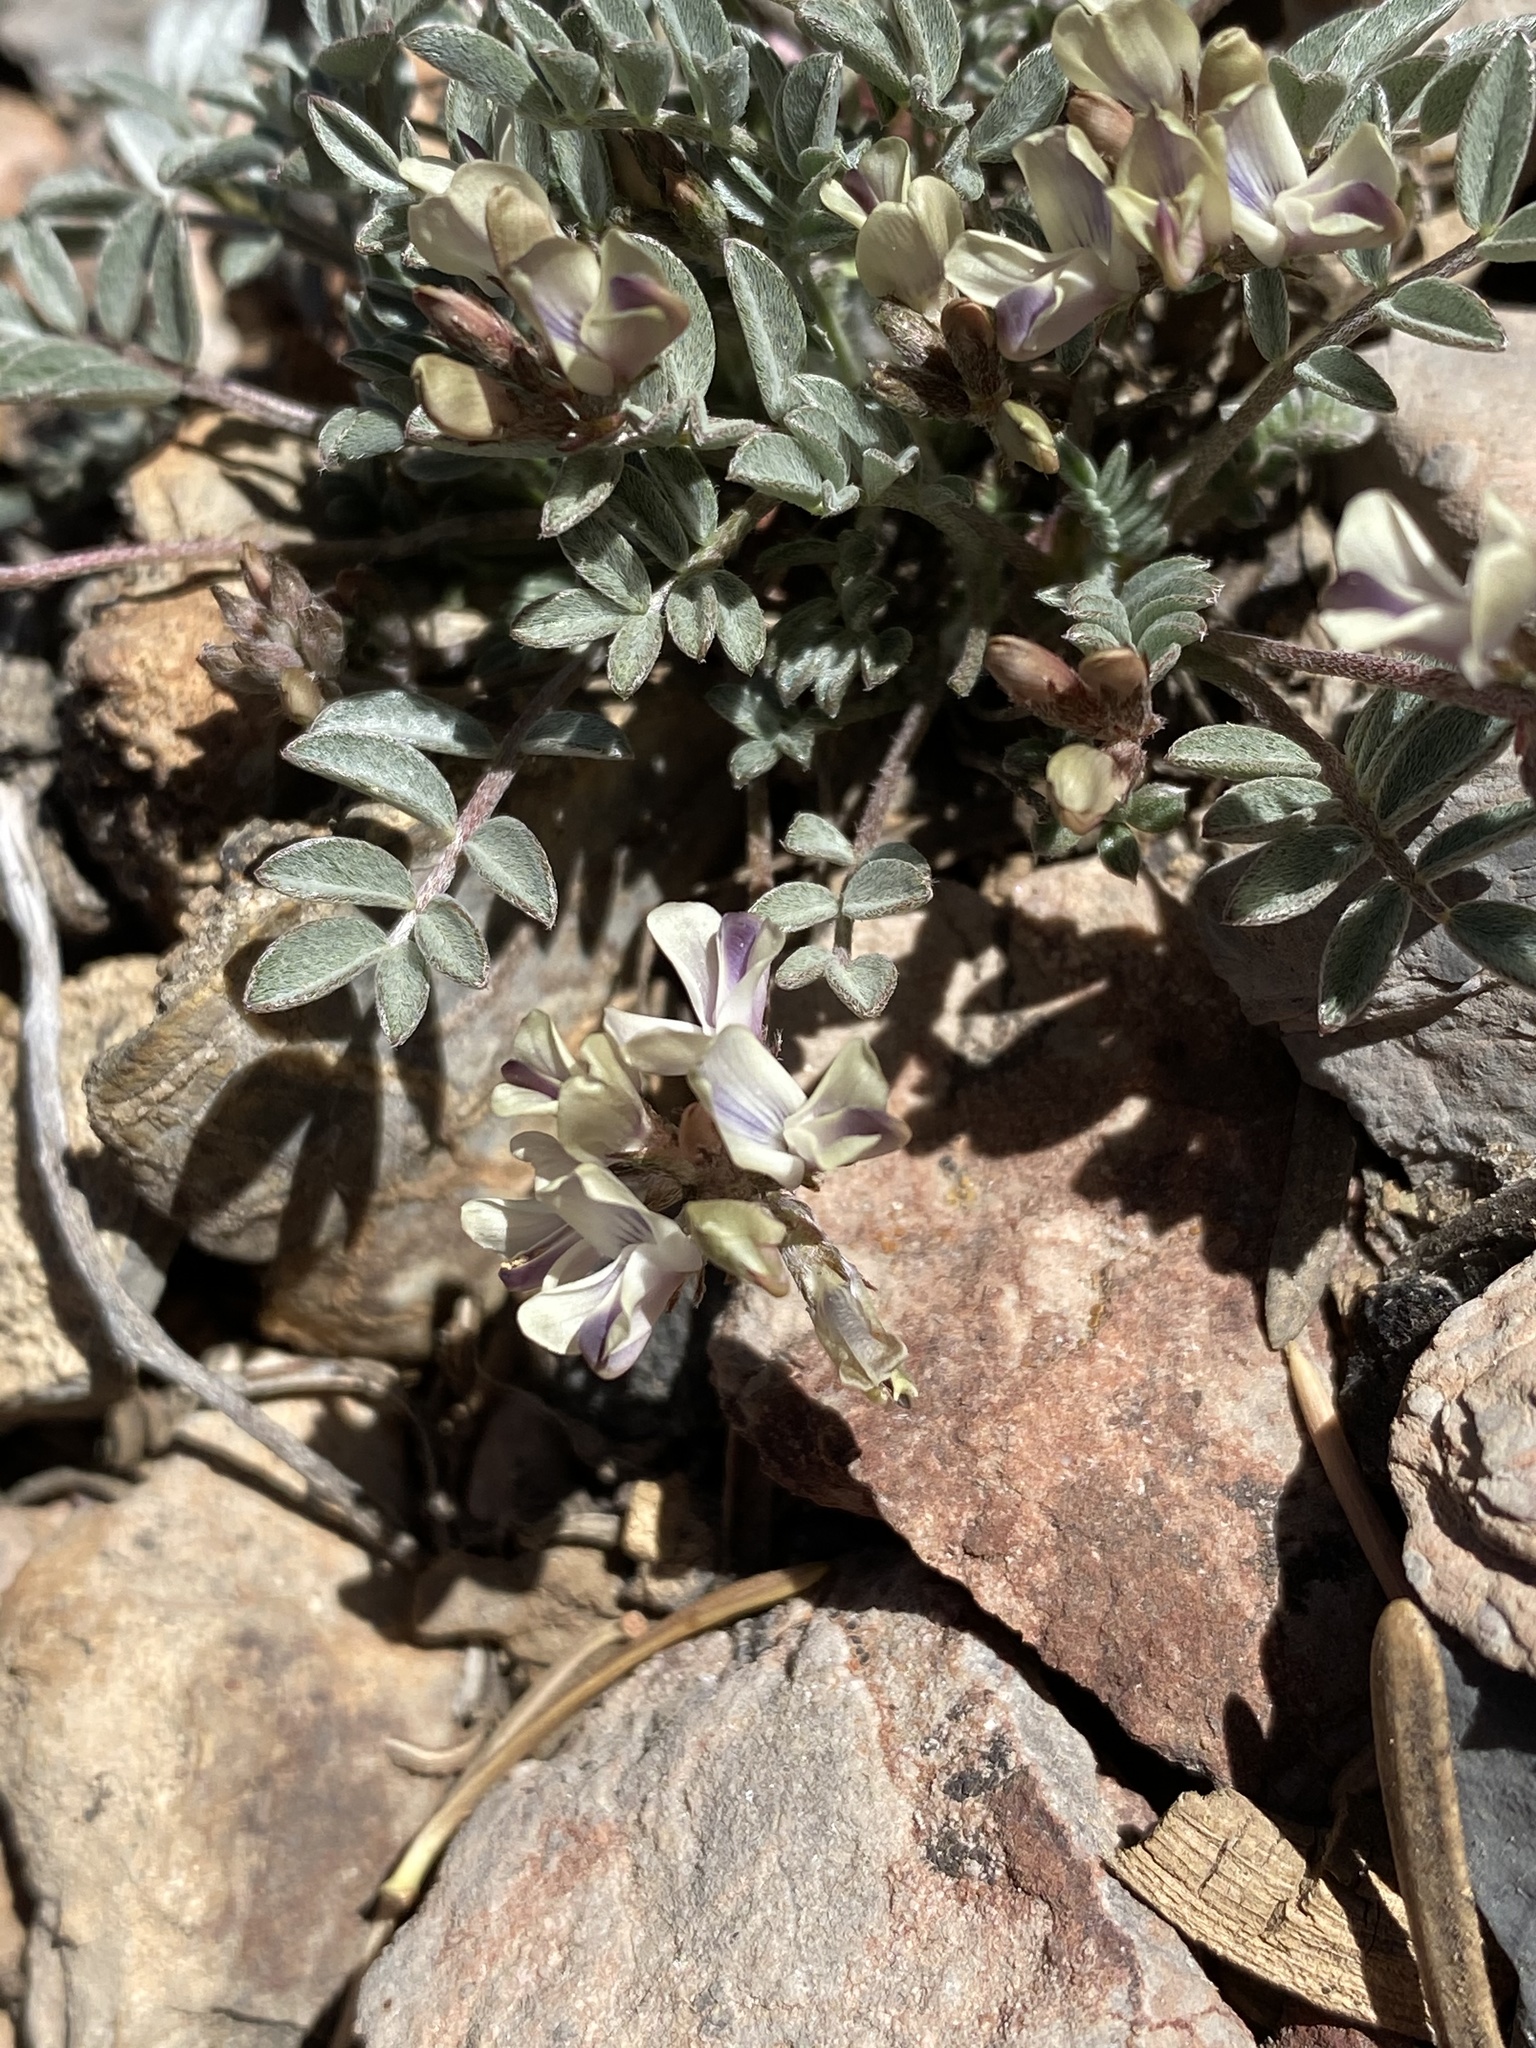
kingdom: Plantae
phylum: Tracheophyta
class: Magnoliopsida
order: Fabales
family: Fabaceae
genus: Astragalus
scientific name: Astragalus platytropis
